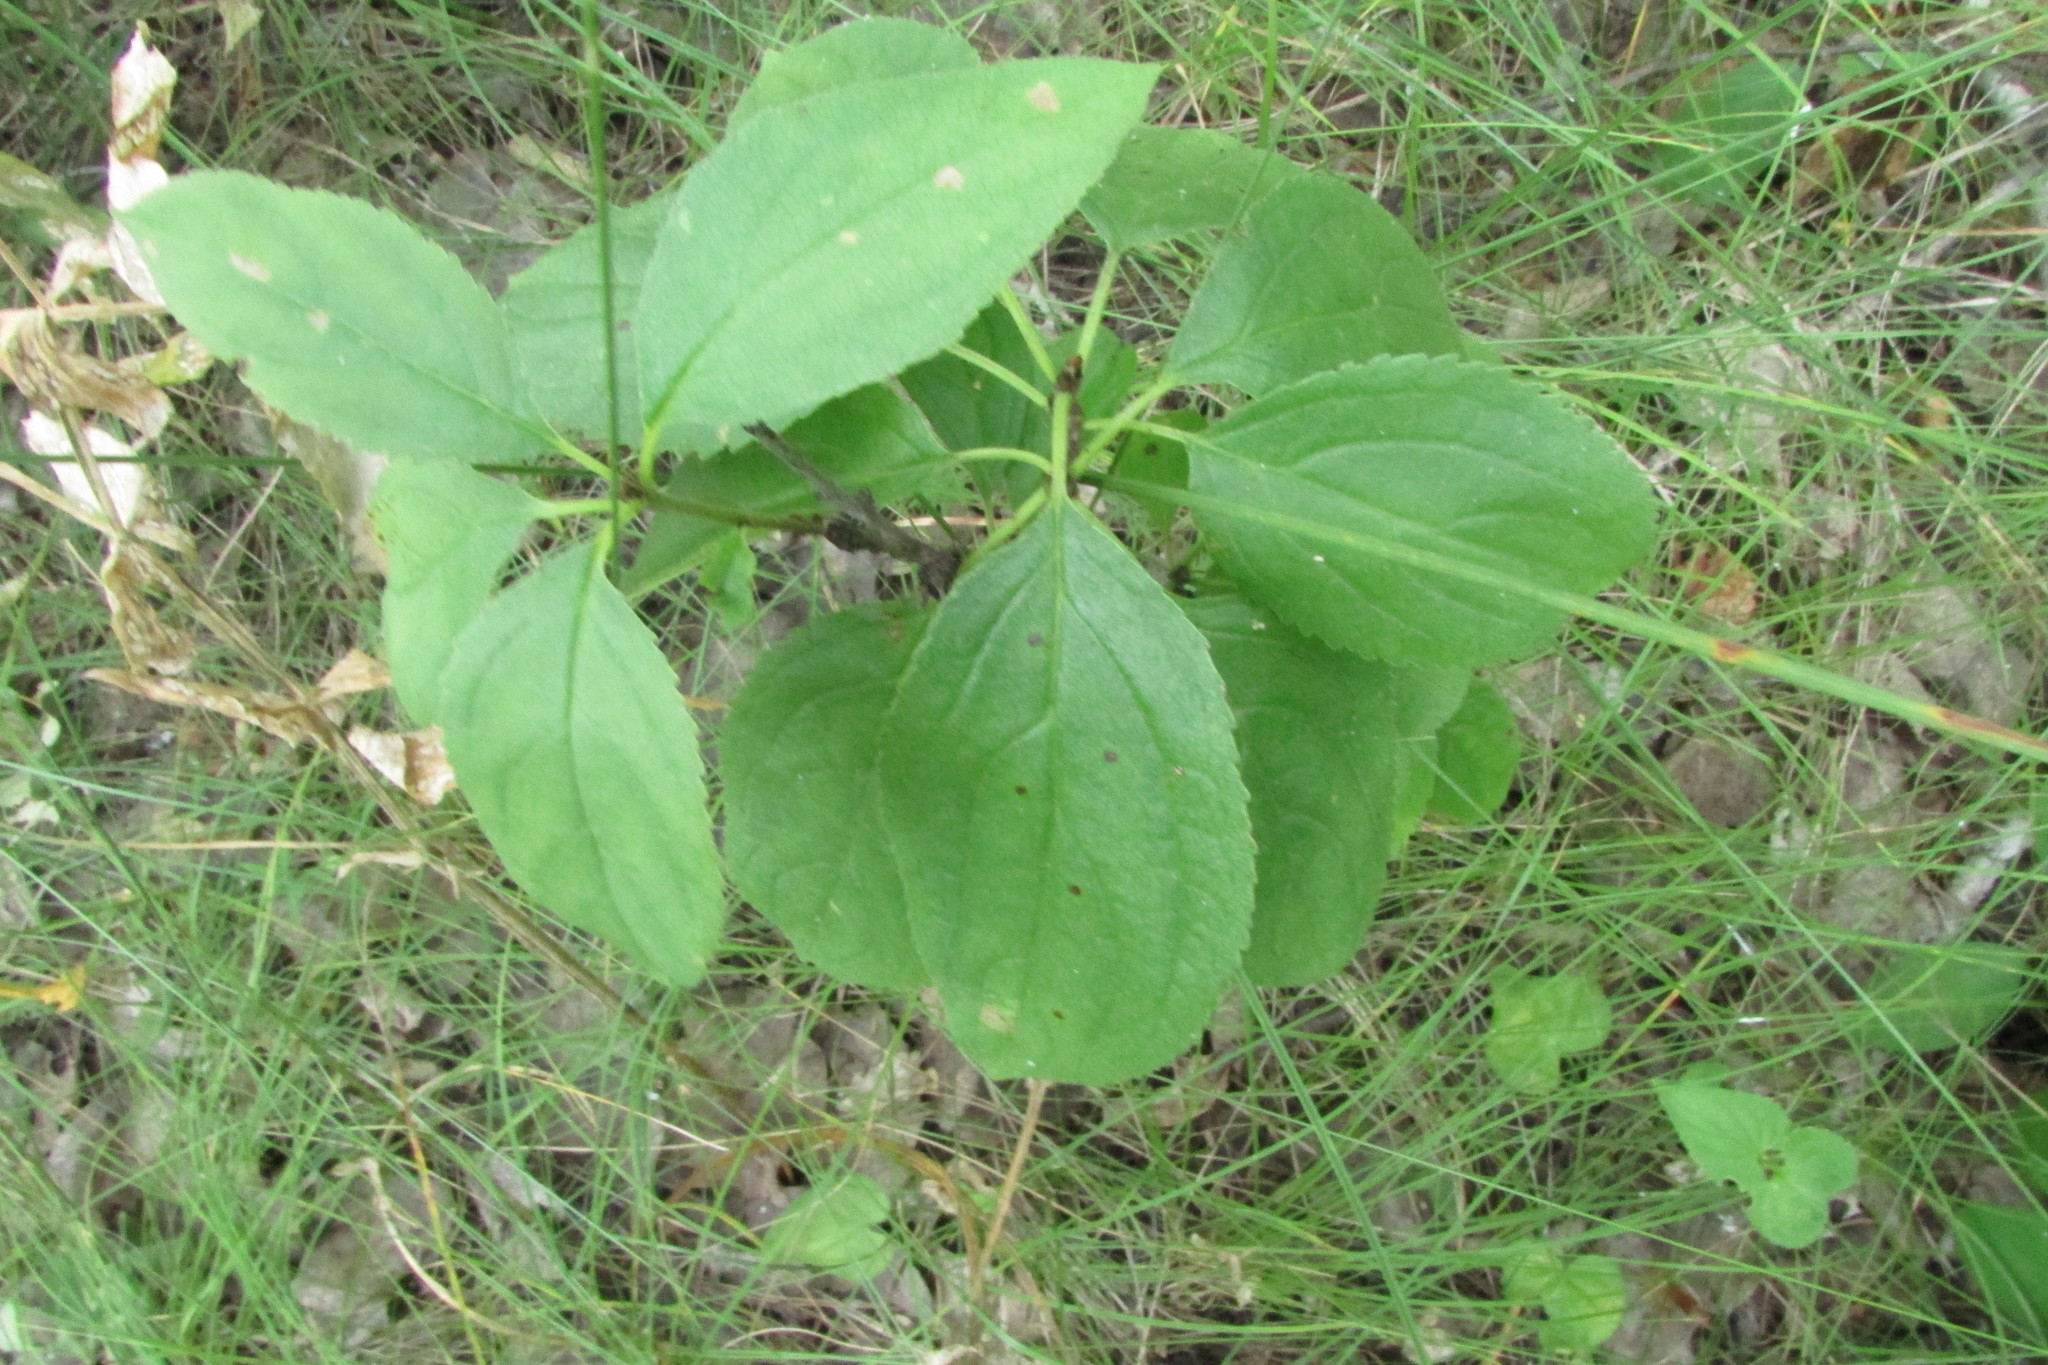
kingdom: Plantae
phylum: Tracheophyta
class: Magnoliopsida
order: Rosales
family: Rhamnaceae
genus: Rhamnus
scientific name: Rhamnus cathartica
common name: Common buckthorn
